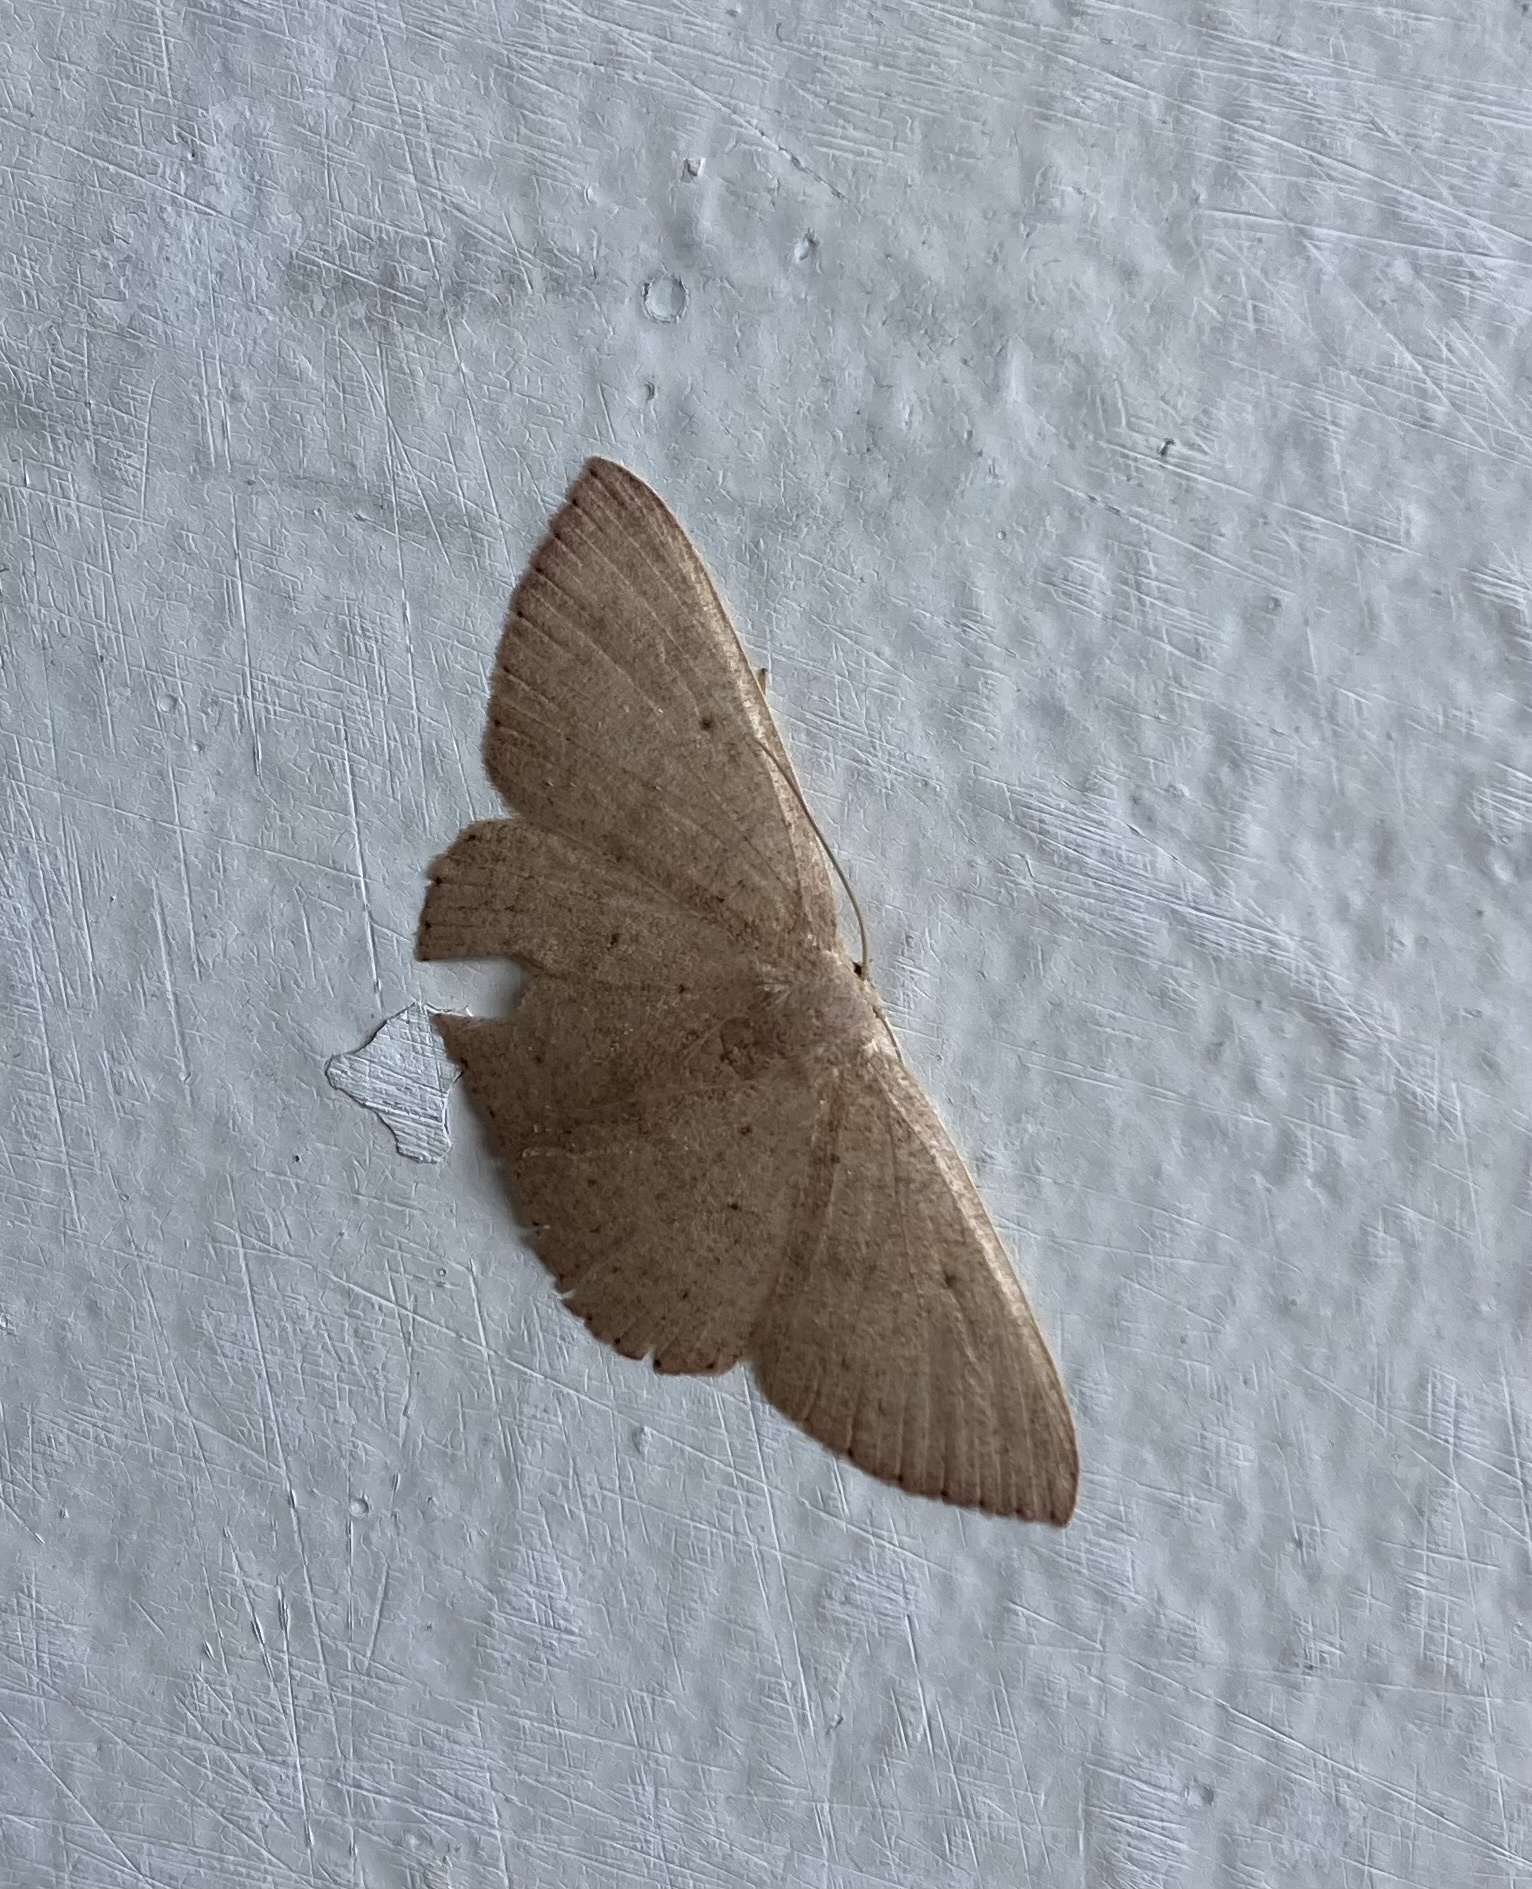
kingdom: Animalia
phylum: Arthropoda
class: Insecta
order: Lepidoptera
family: Geometridae
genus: Cyclophora
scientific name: Cyclophora obstataria
